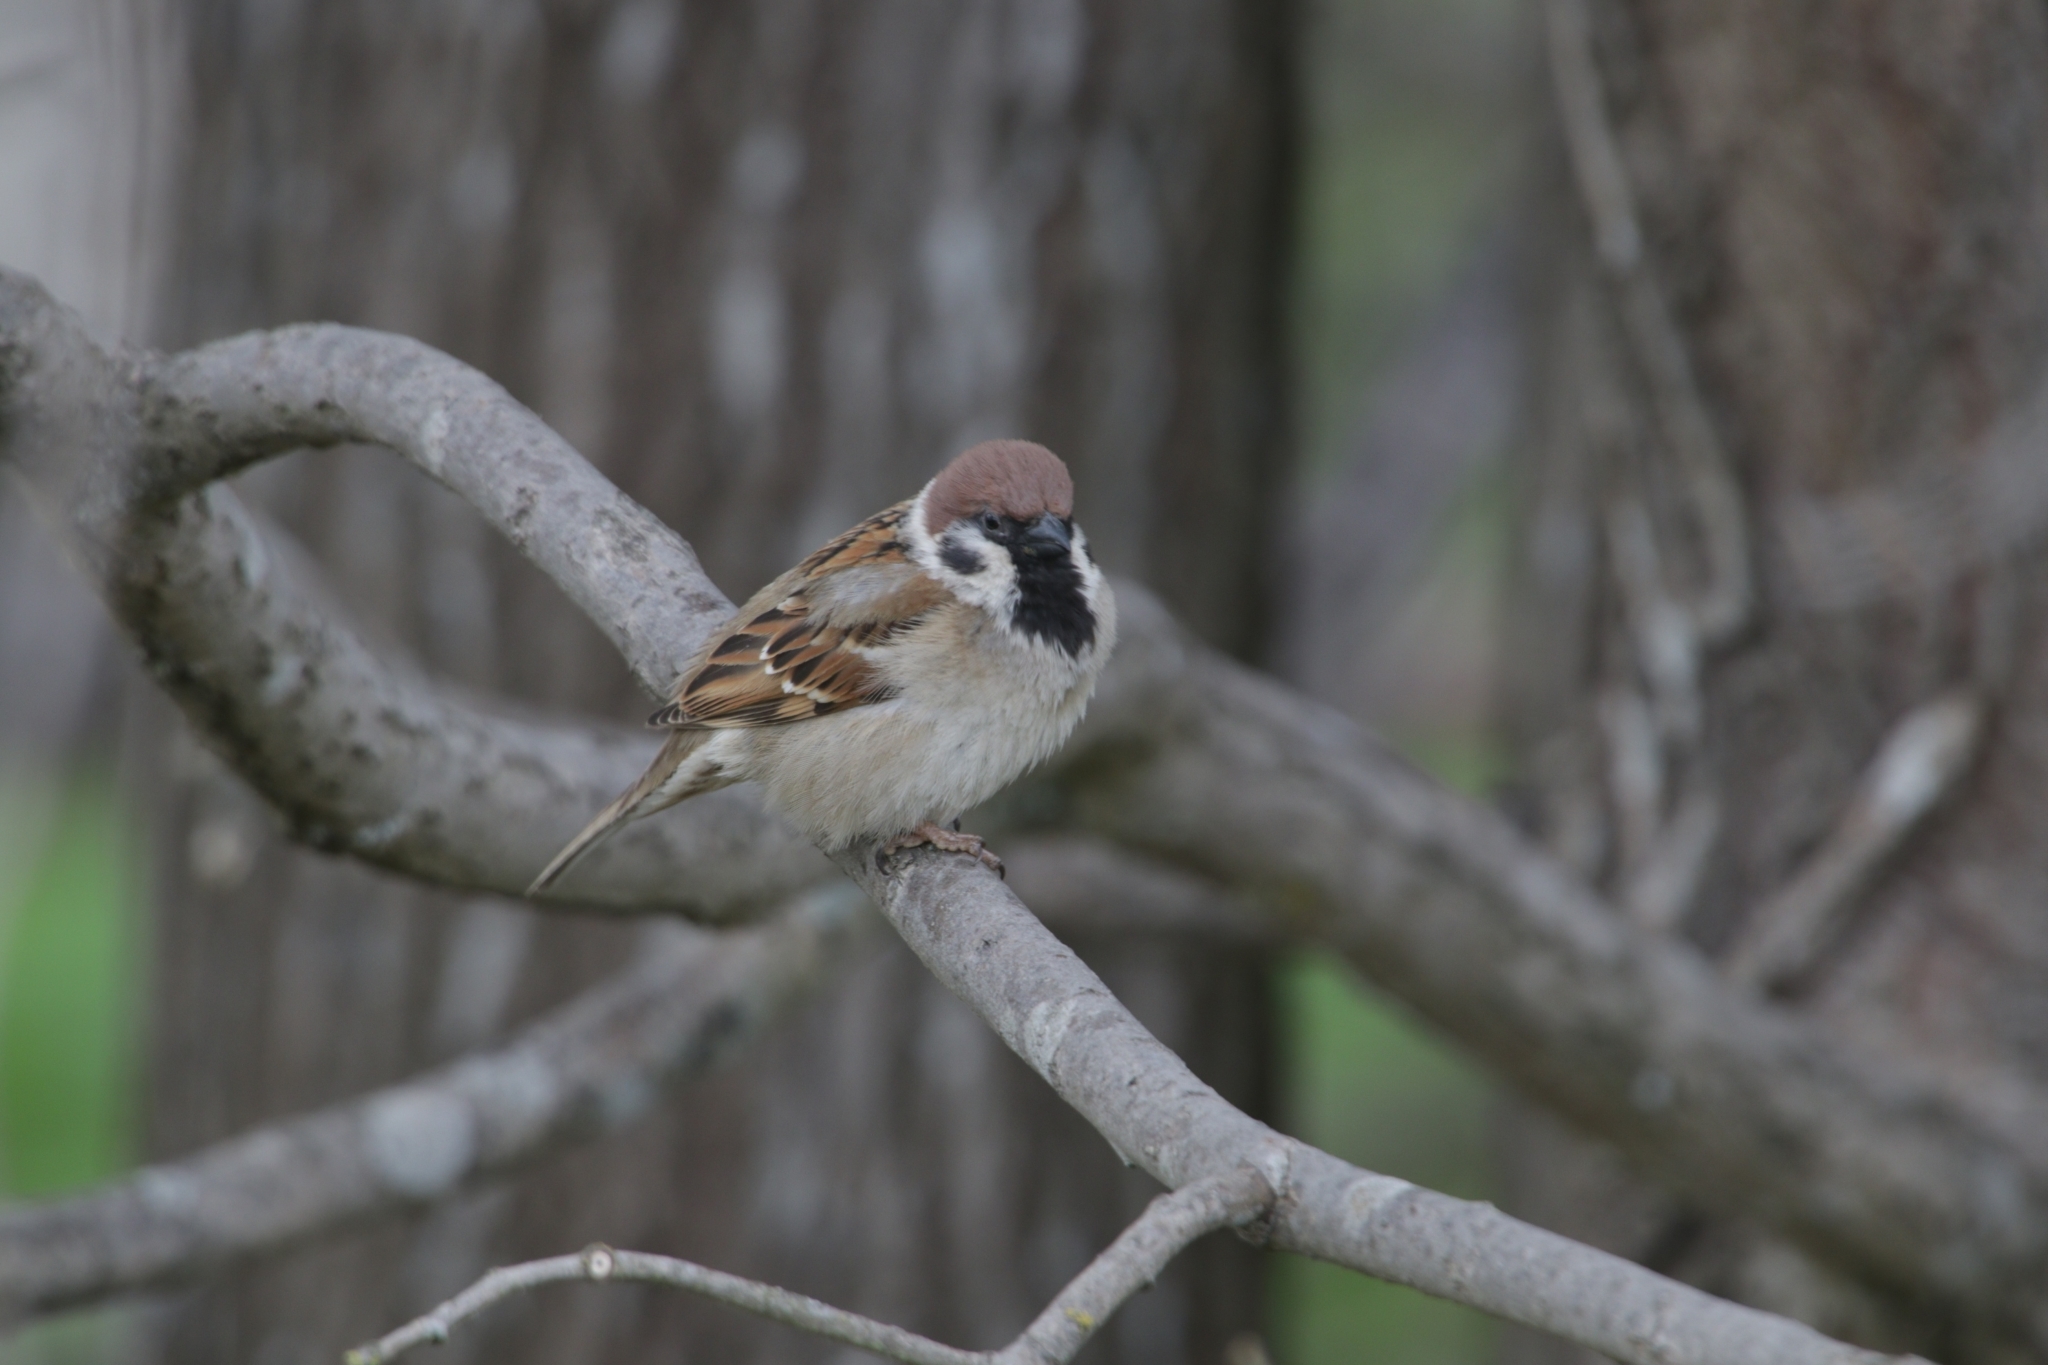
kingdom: Animalia
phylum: Chordata
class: Aves
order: Passeriformes
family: Passeridae
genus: Passer
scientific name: Passer montanus
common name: Eurasian tree sparrow
